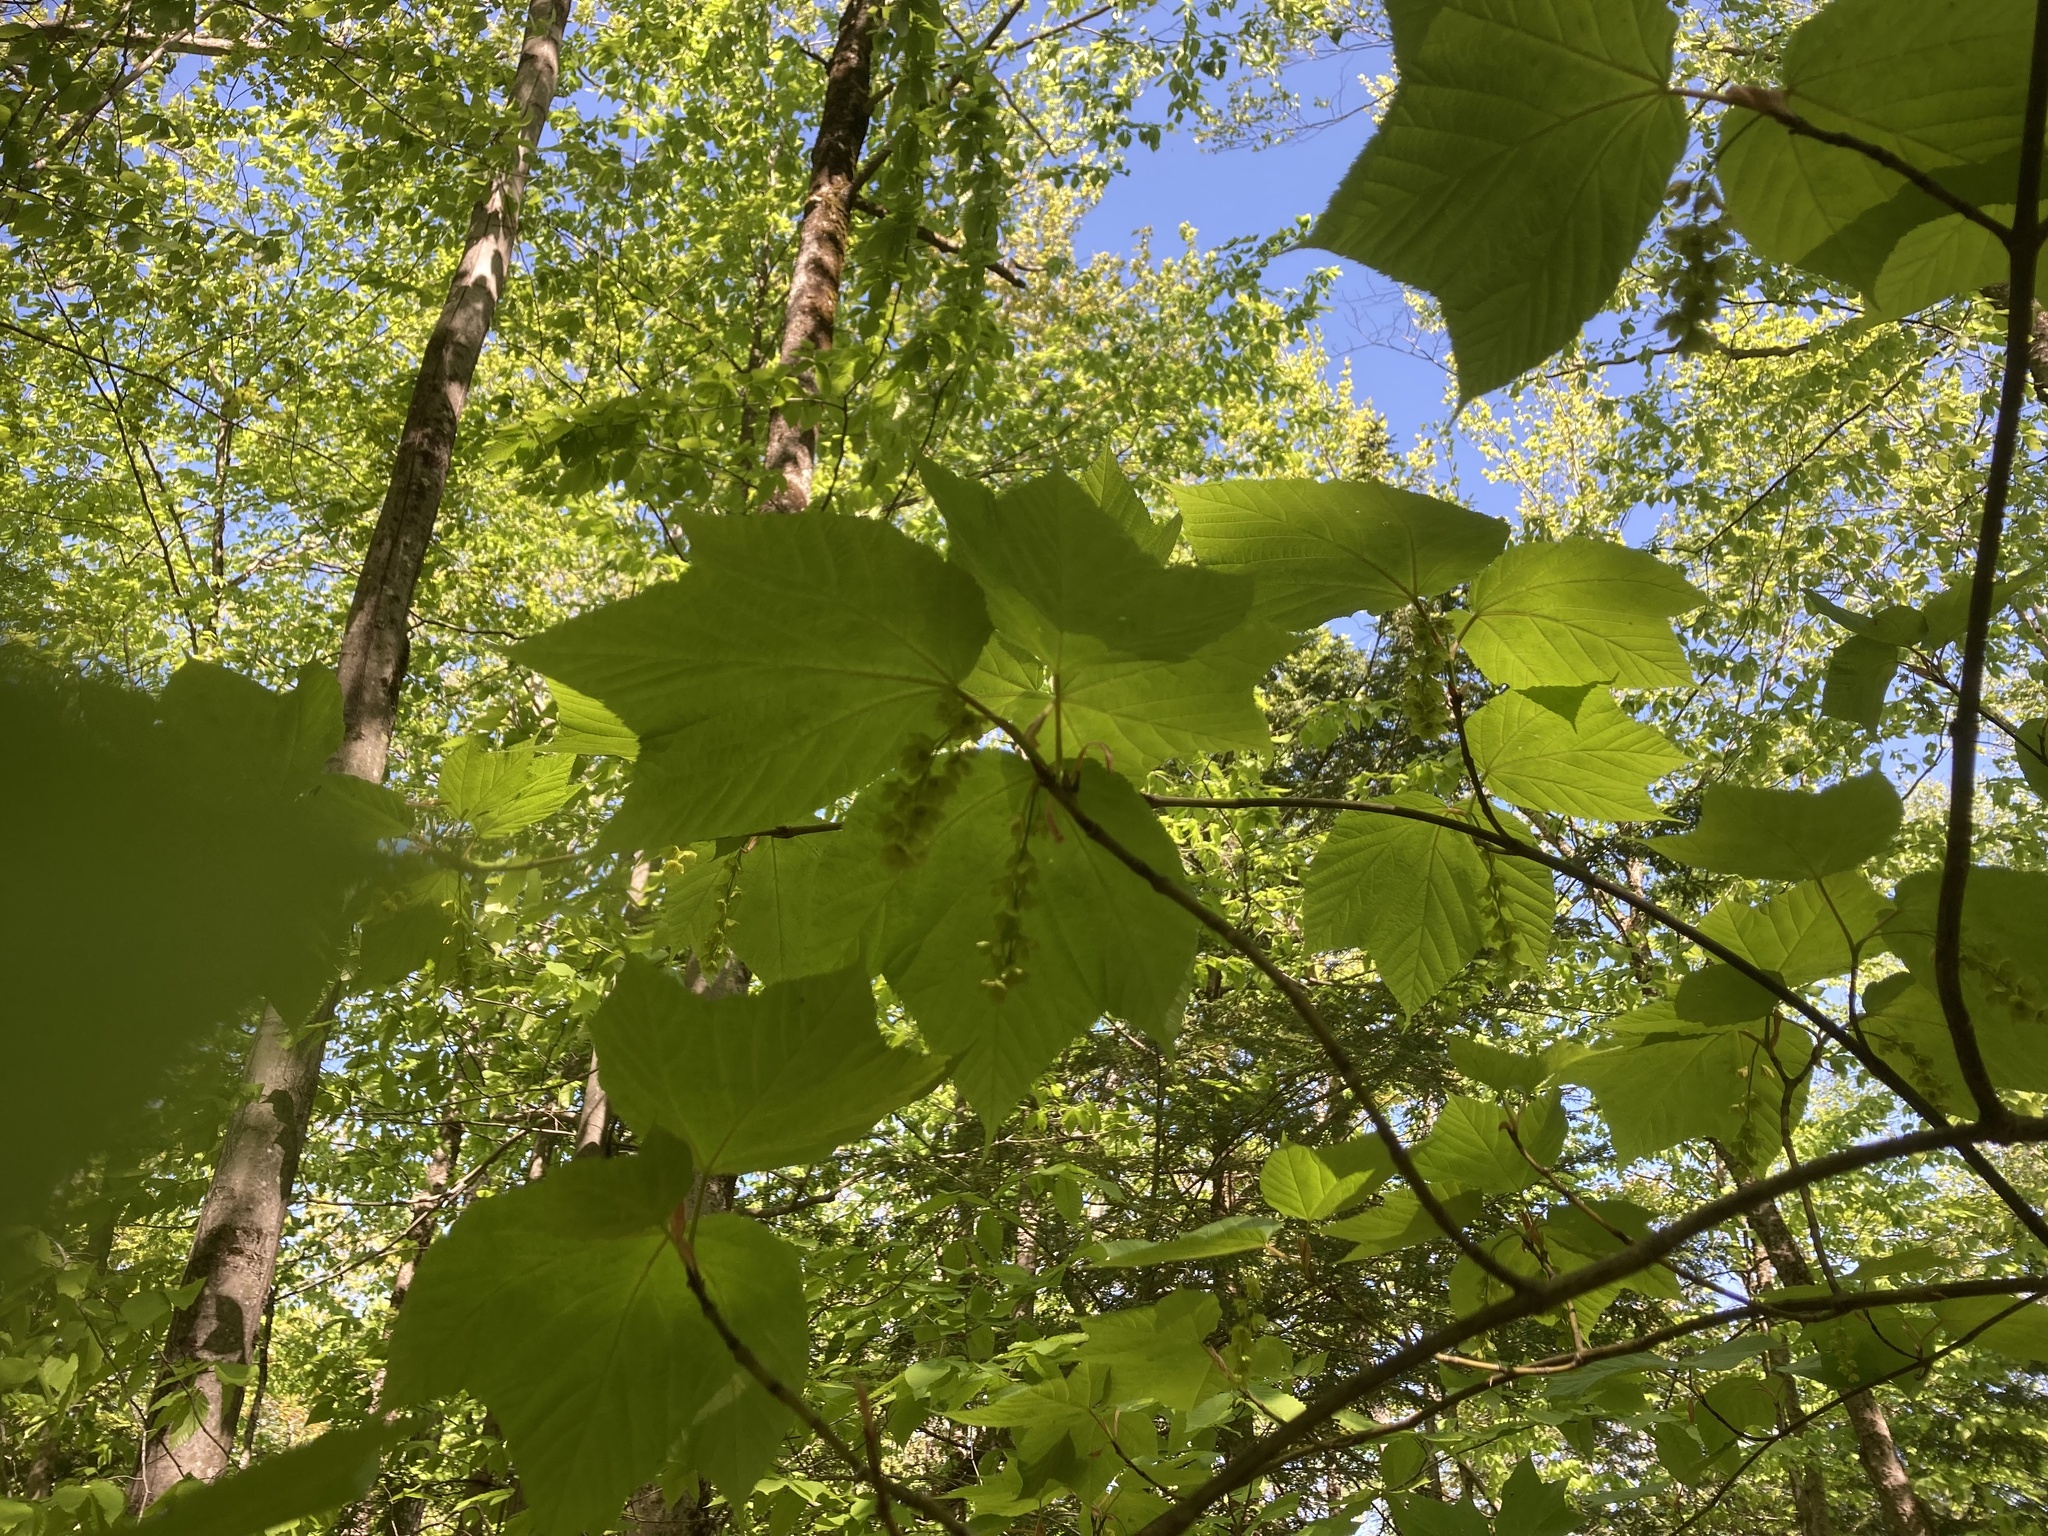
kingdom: Plantae
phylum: Tracheophyta
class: Magnoliopsida
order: Sapindales
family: Sapindaceae
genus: Acer
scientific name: Acer pensylvanicum
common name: Moosewood
